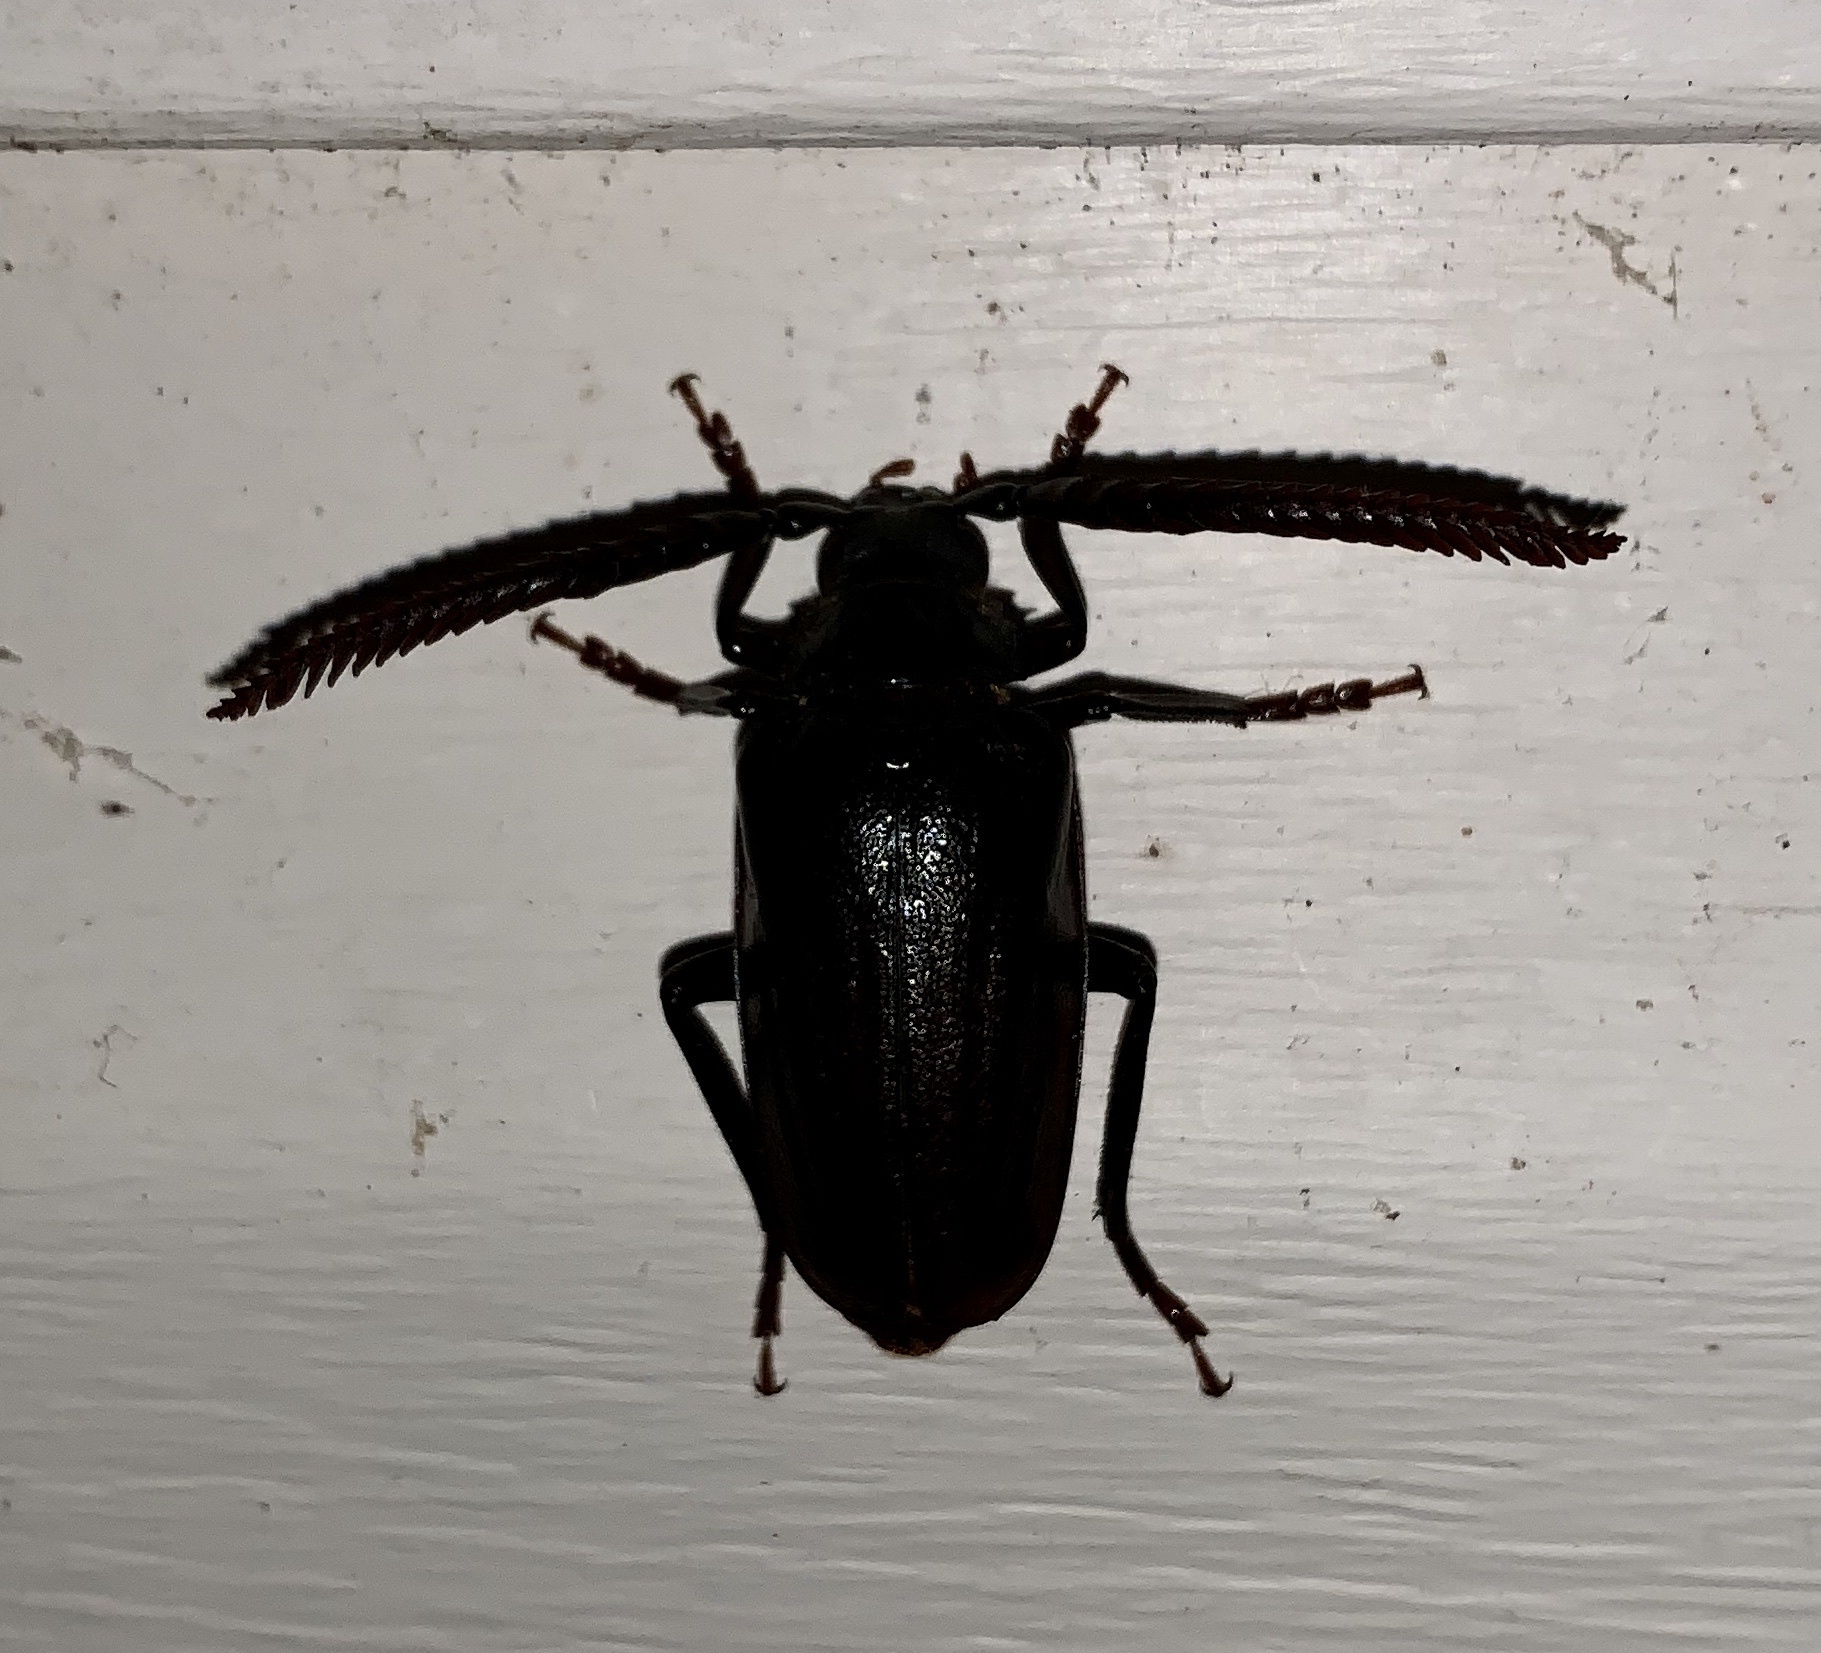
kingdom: Animalia
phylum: Arthropoda
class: Insecta
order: Coleoptera
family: Cerambycidae
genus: Prionus
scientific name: Prionus imbricornis
